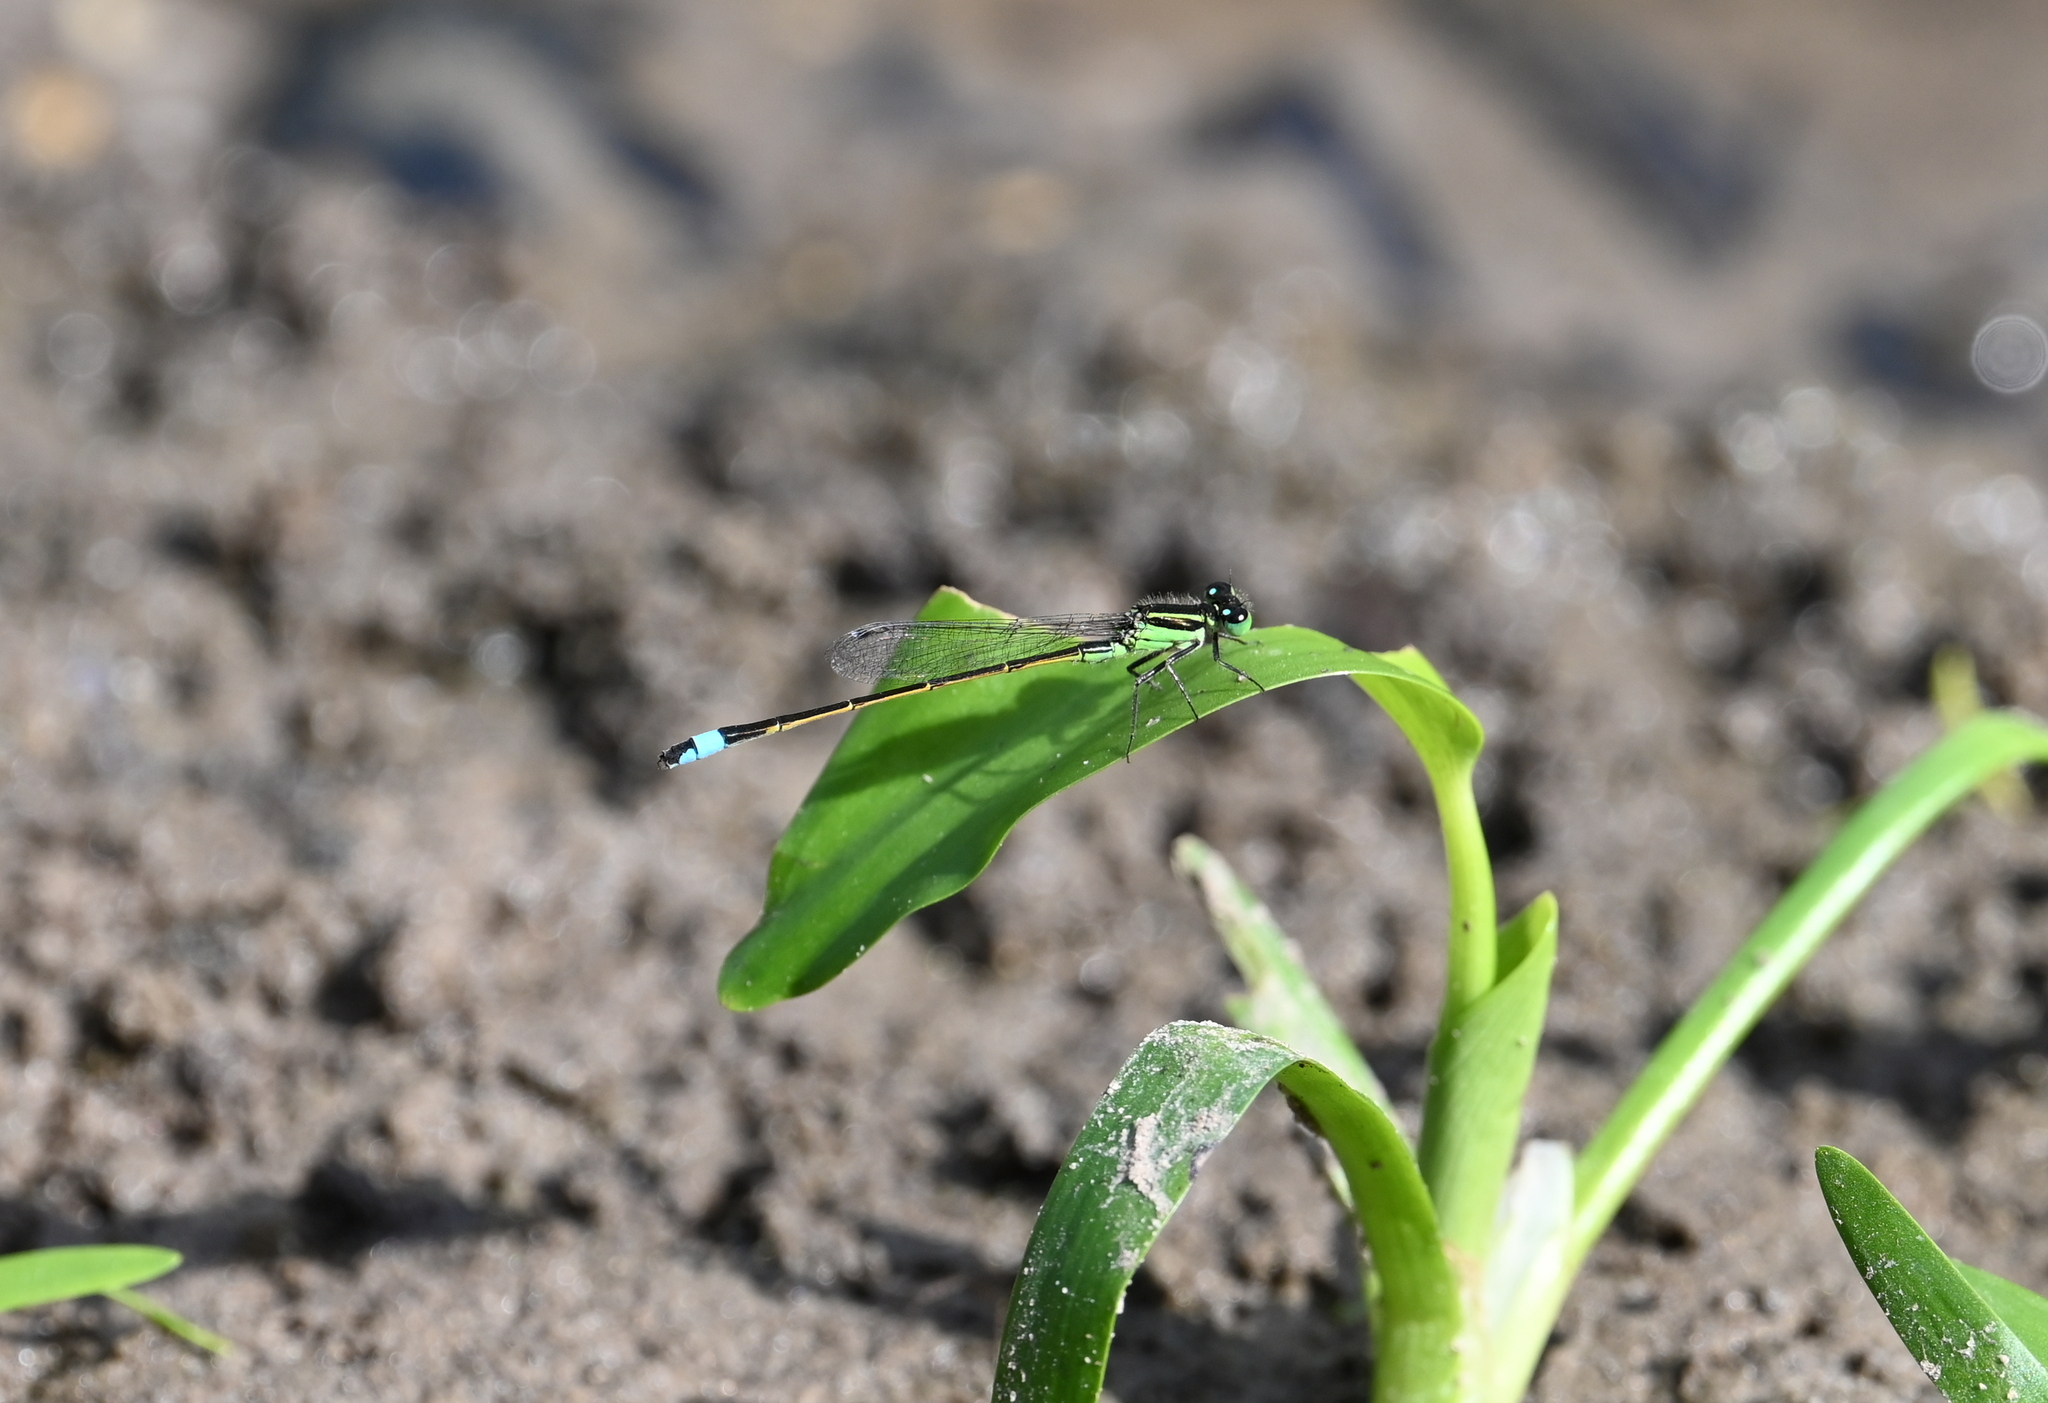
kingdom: Animalia
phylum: Arthropoda
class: Insecta
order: Odonata
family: Coenagrionidae
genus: Ischnura
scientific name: Ischnura ramburii
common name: Rambur's forktail
